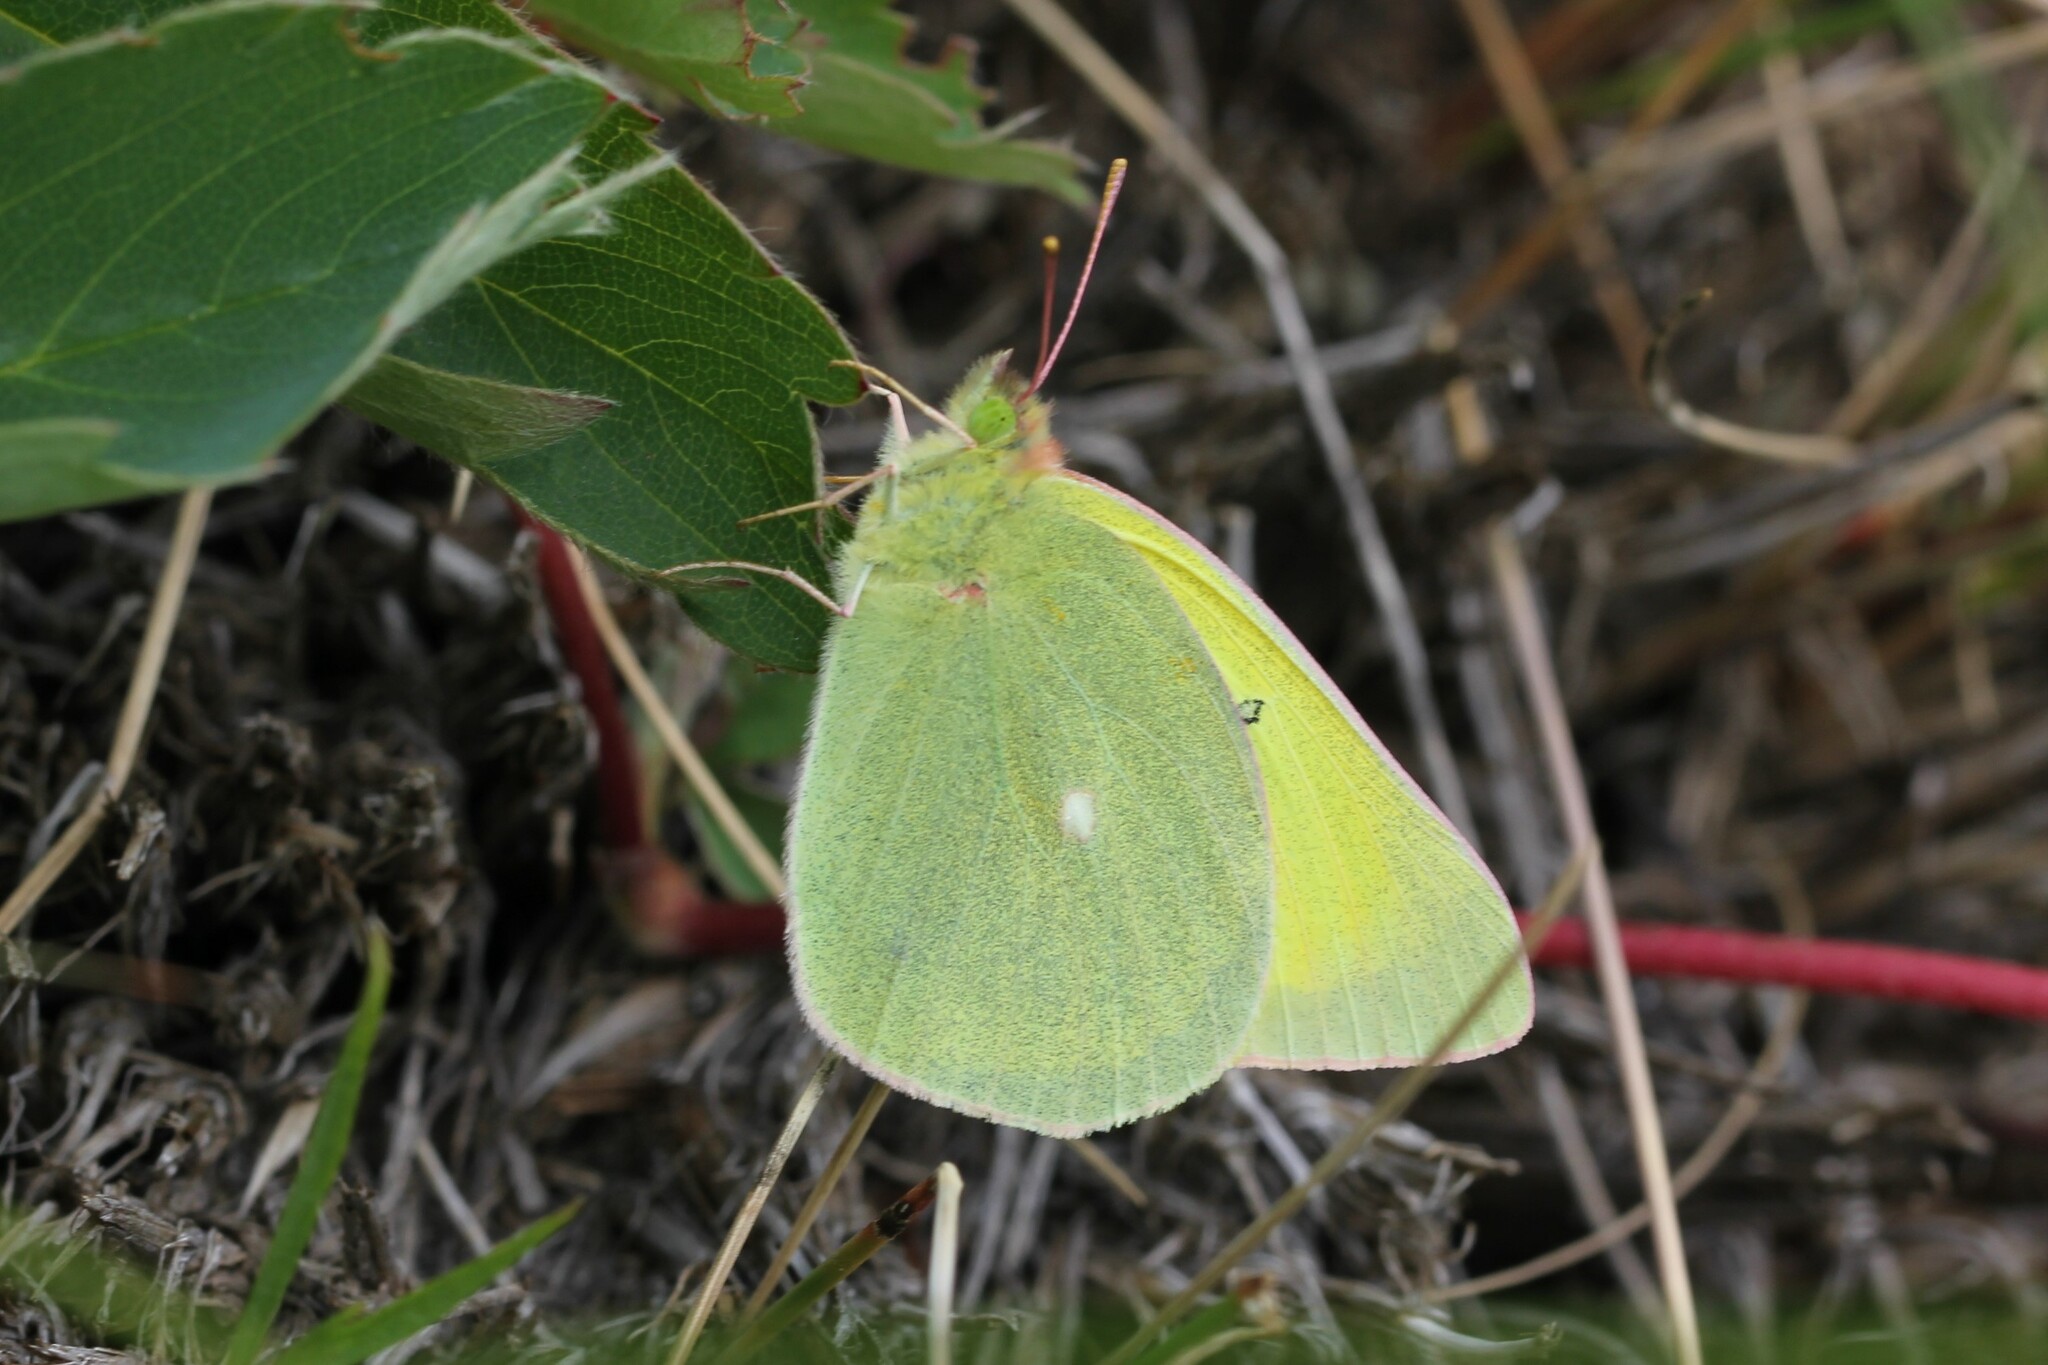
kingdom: Animalia
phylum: Arthropoda
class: Insecta
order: Lepidoptera
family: Pieridae
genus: Colias
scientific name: Colias alexandra
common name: Alexandra sulphur
